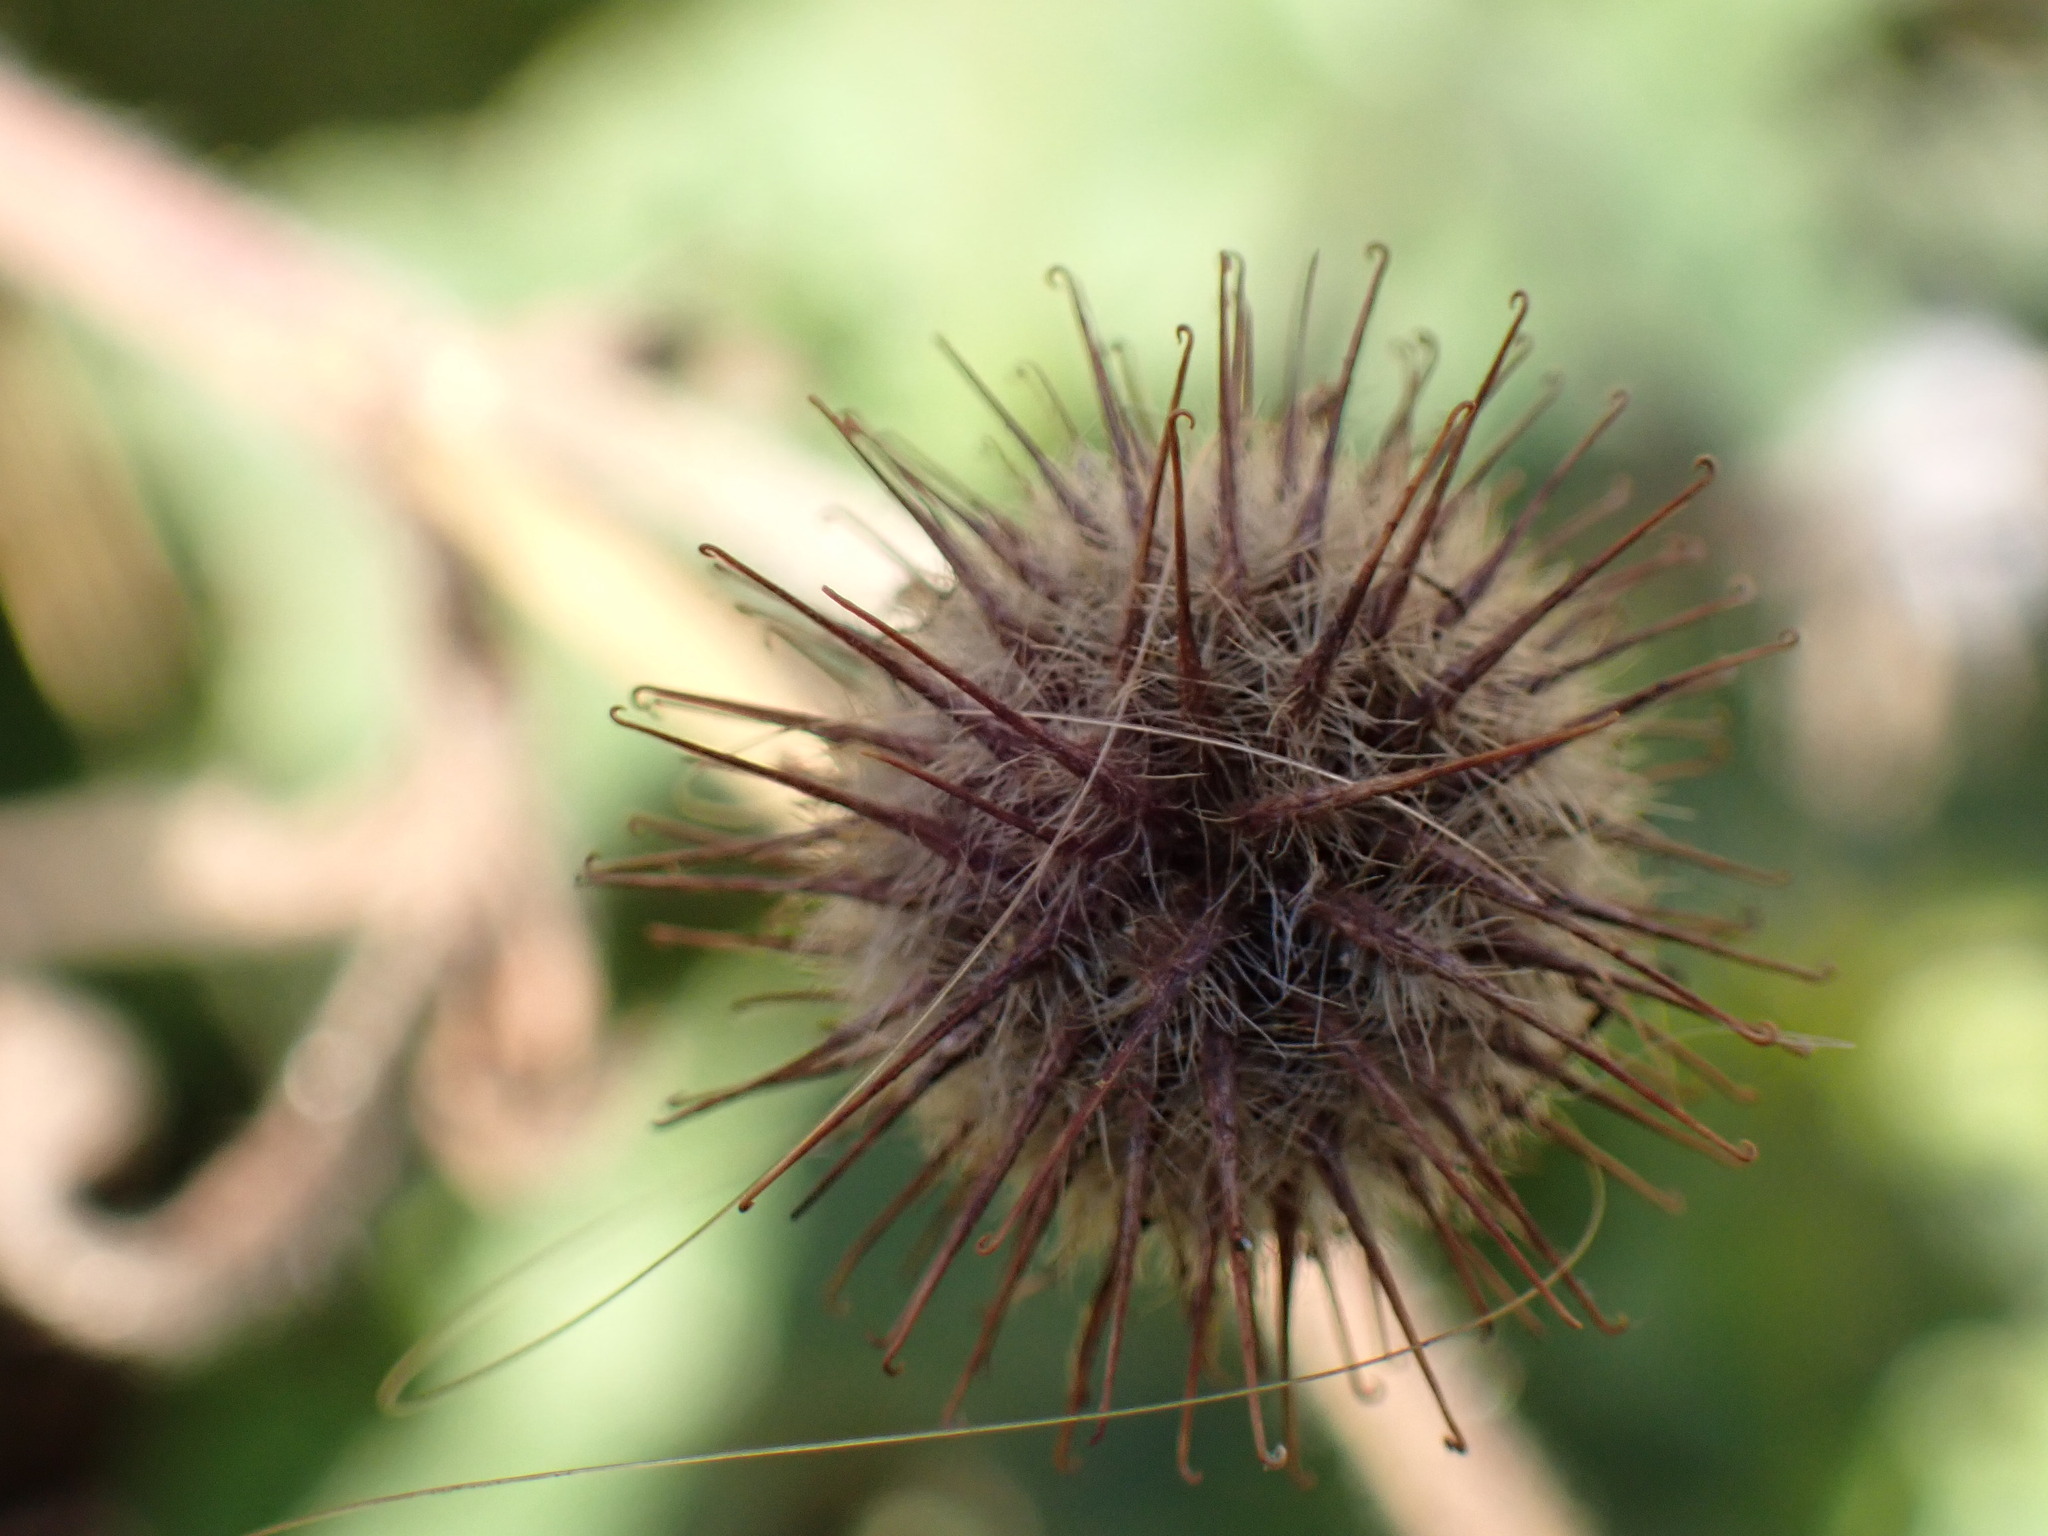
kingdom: Animalia
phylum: Arthropoda
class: Arachnida
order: Trombidiformes
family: Eriophyidae
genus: Cecidophyes
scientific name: Cecidophyes nudus
